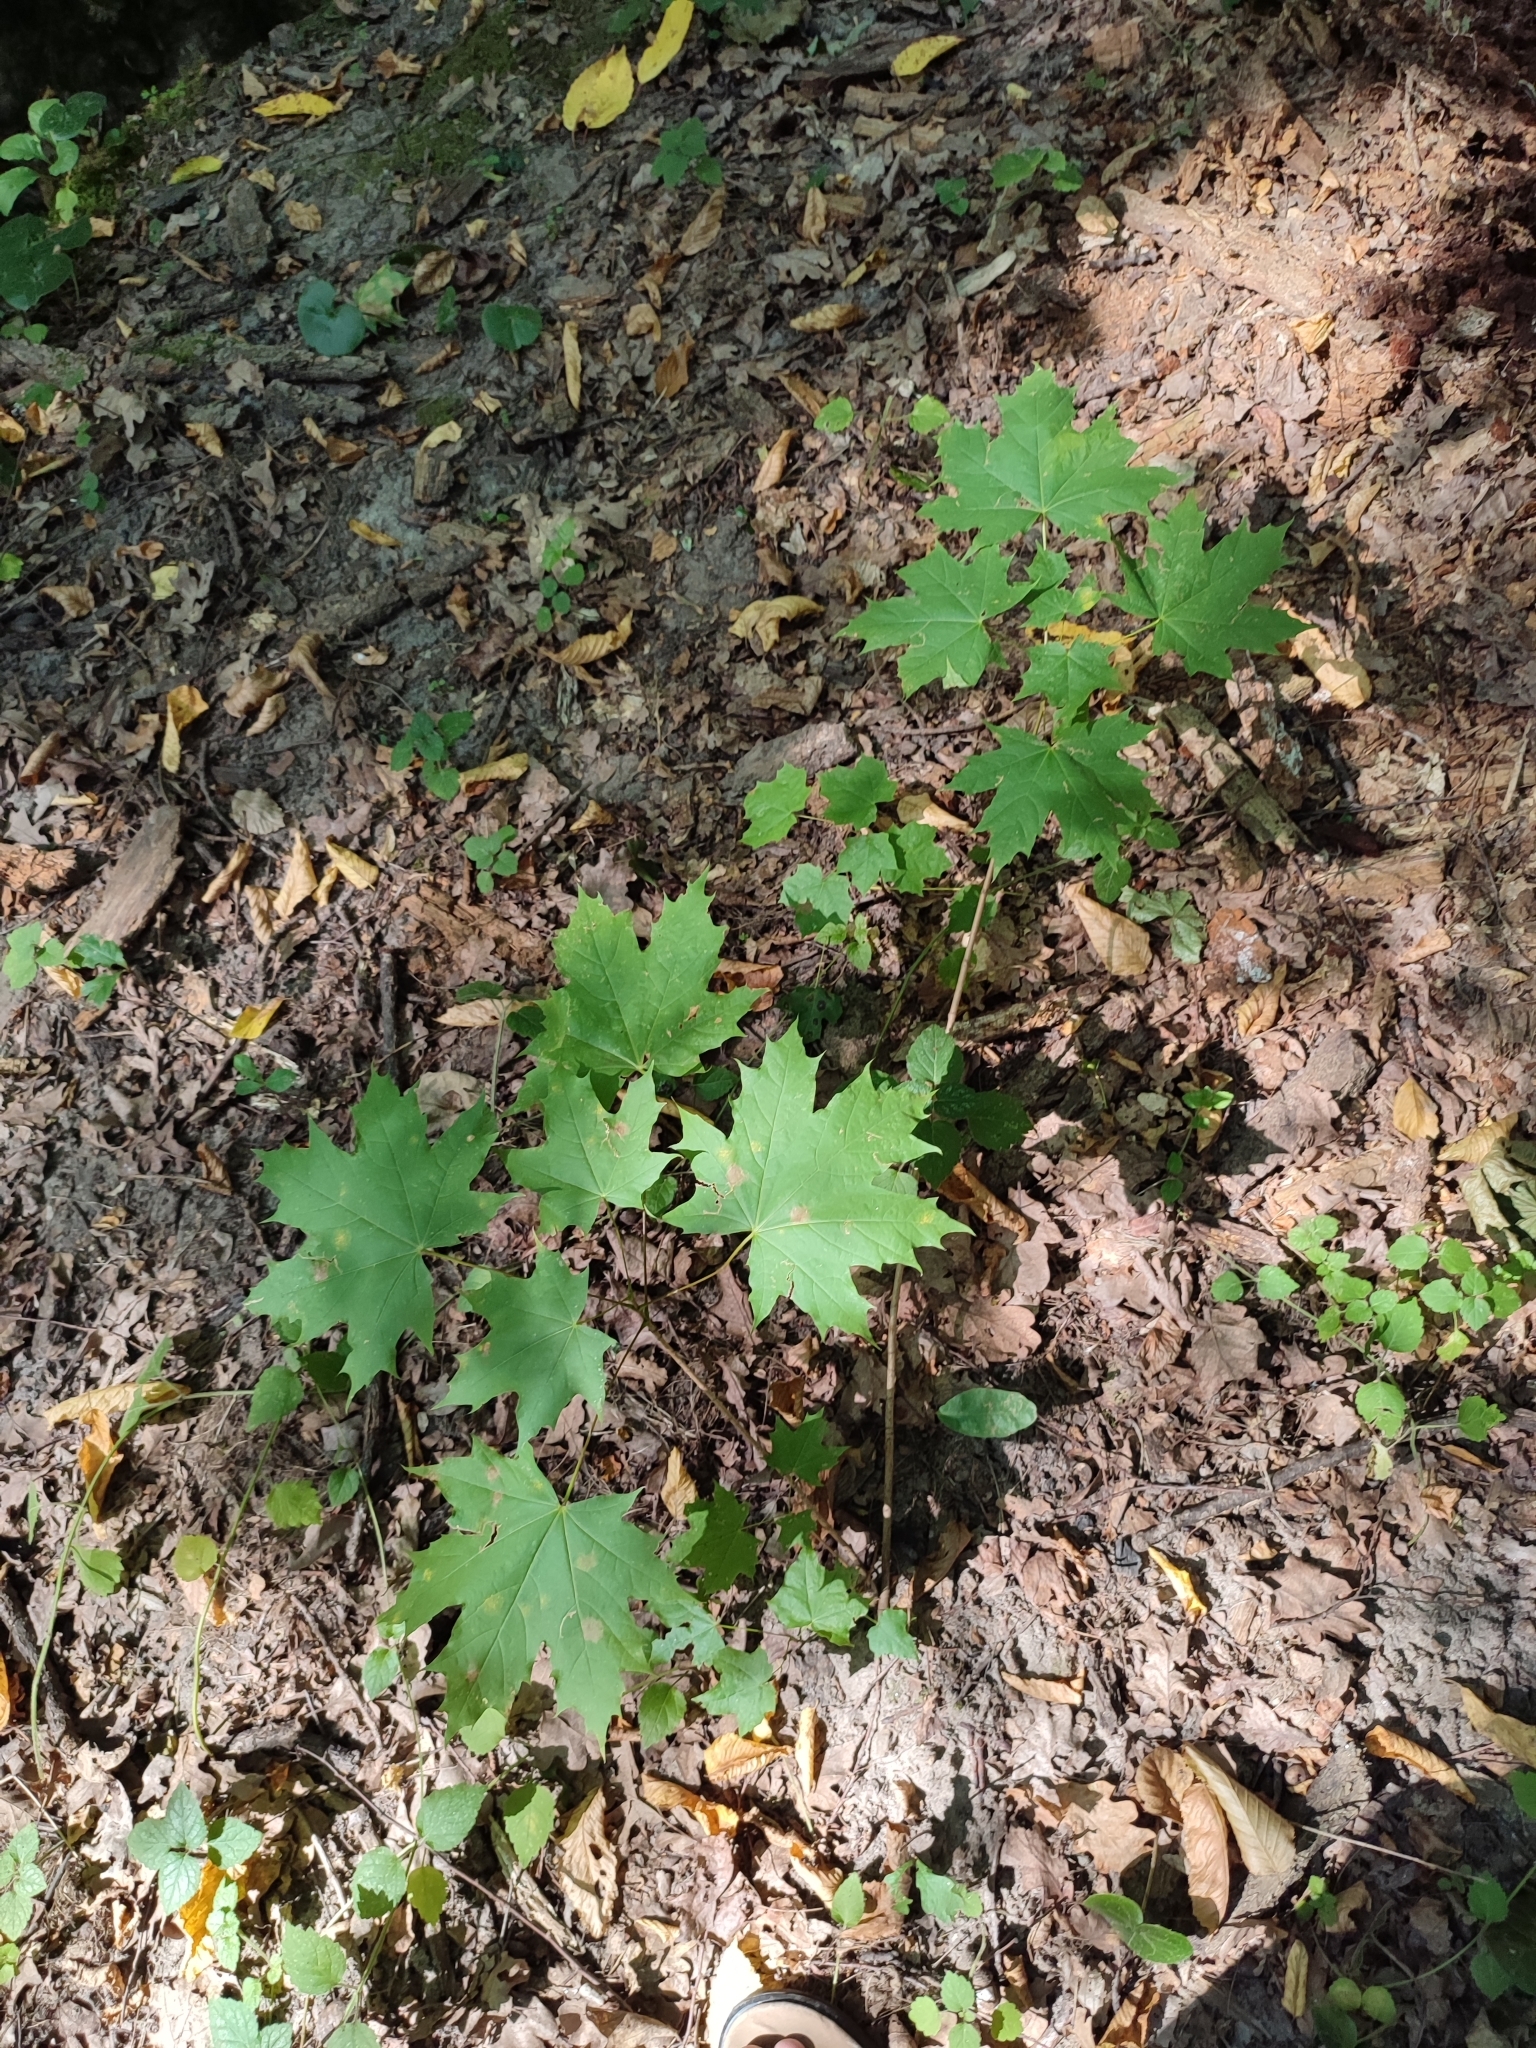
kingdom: Plantae
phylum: Tracheophyta
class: Magnoliopsida
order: Sapindales
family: Sapindaceae
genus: Acer
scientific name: Acer platanoides
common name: Norway maple
